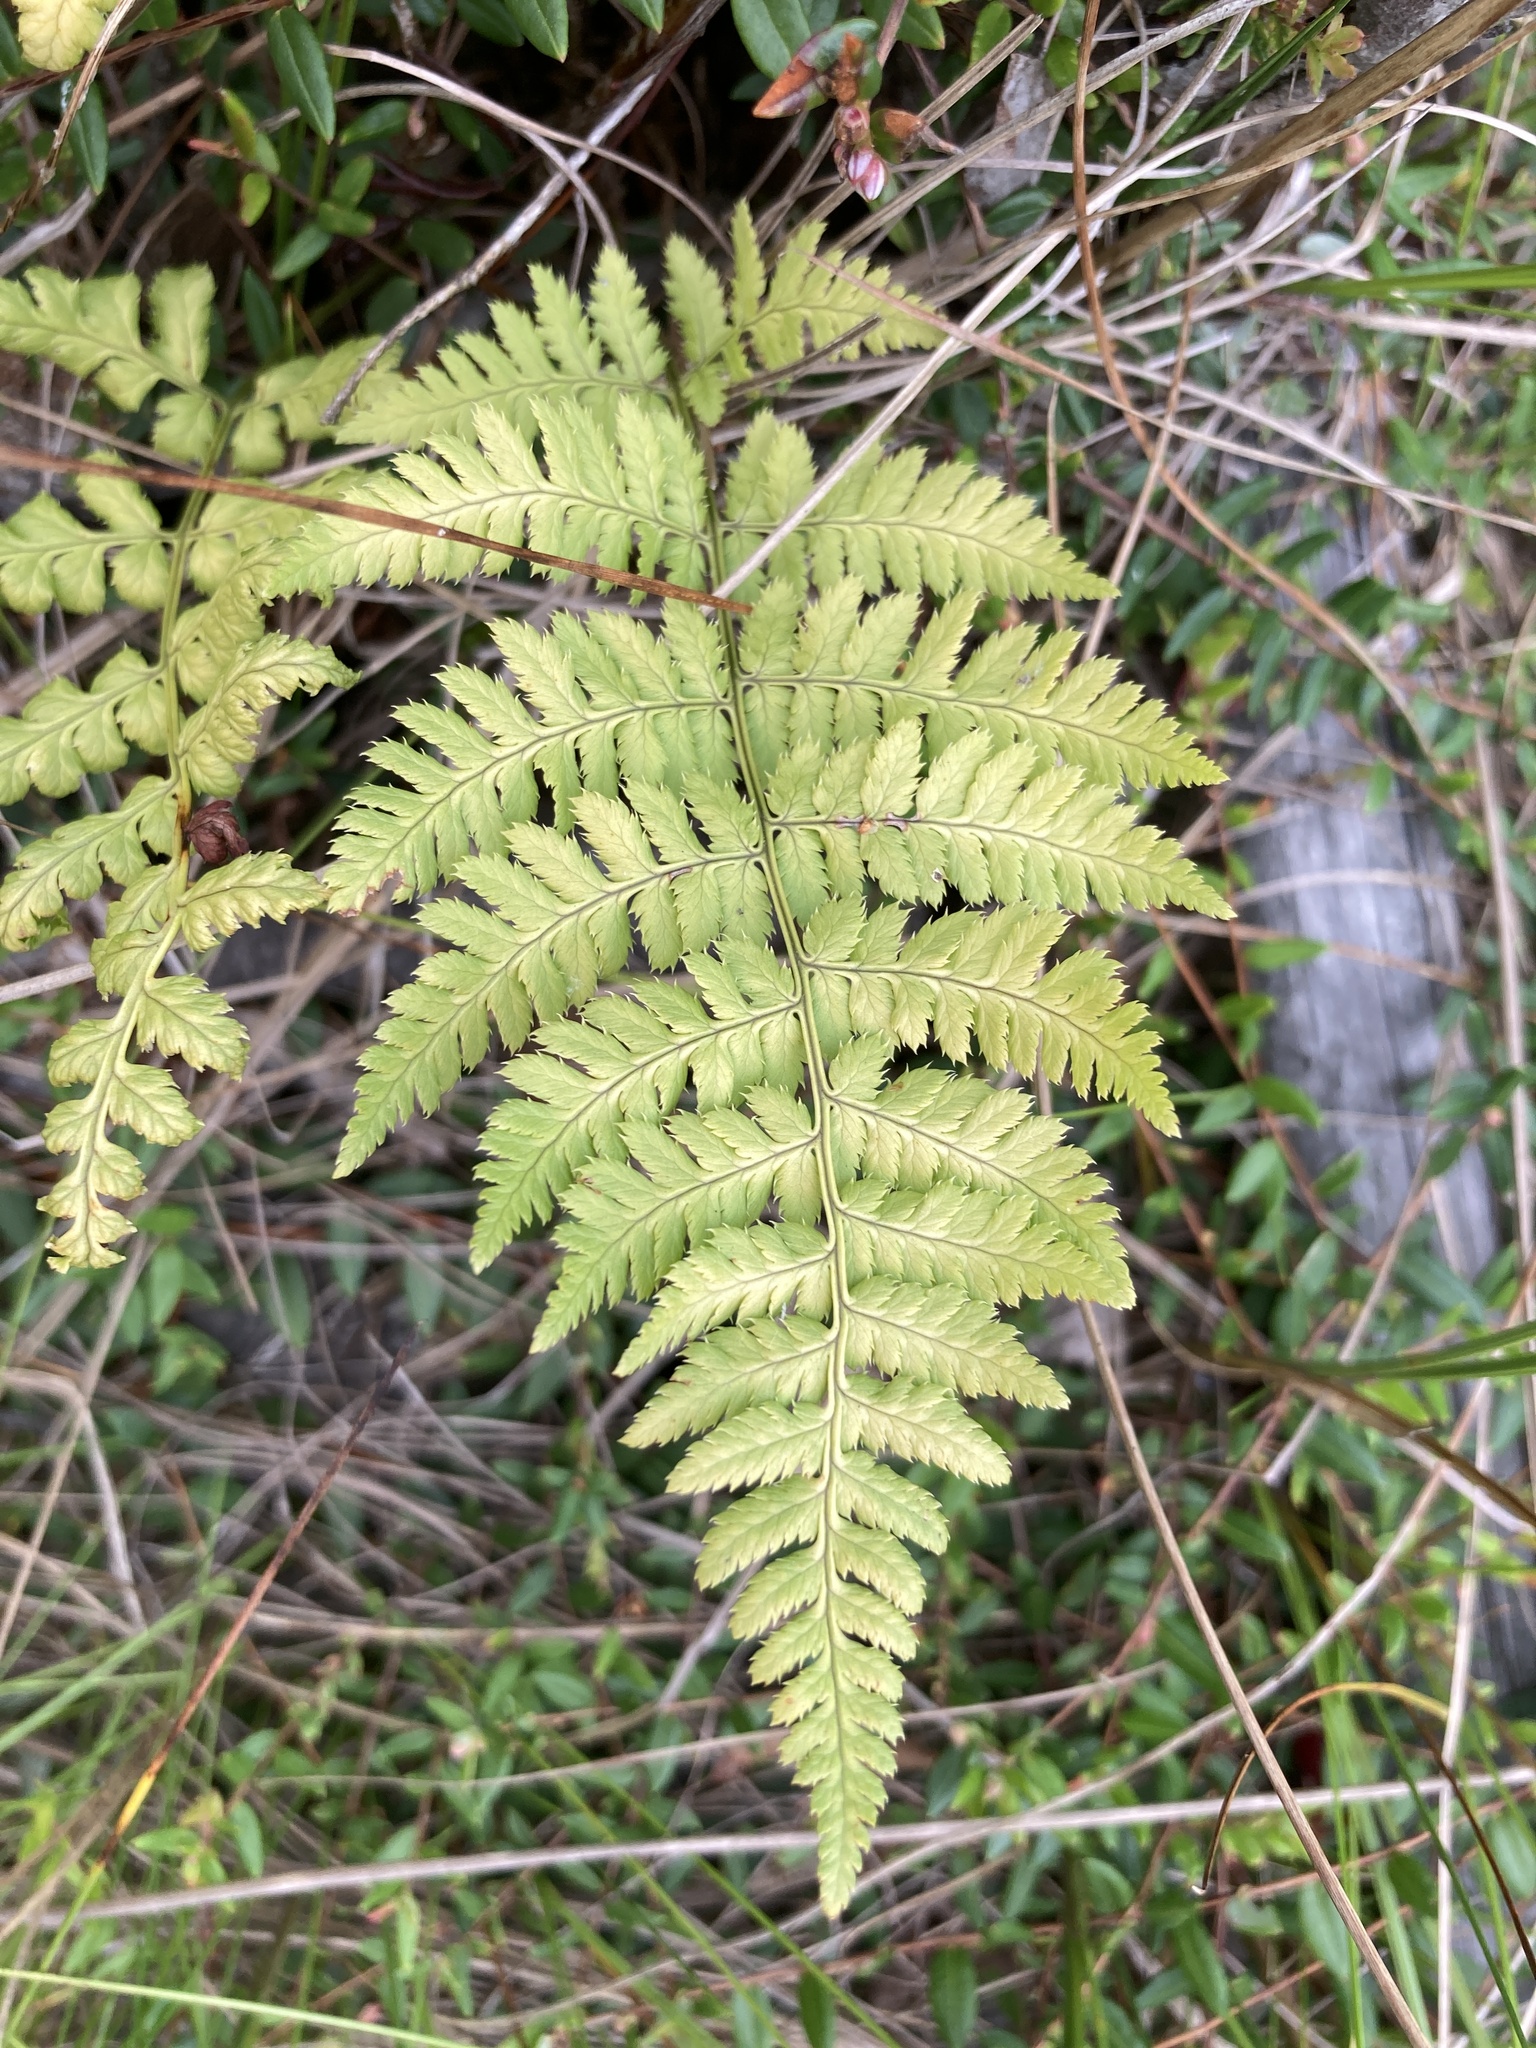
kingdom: Plantae
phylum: Tracheophyta
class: Polypodiopsida
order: Polypodiales
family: Dryopteridaceae
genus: Dryopteris
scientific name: Dryopteris carthusiana
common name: Narrow buckler-fern
